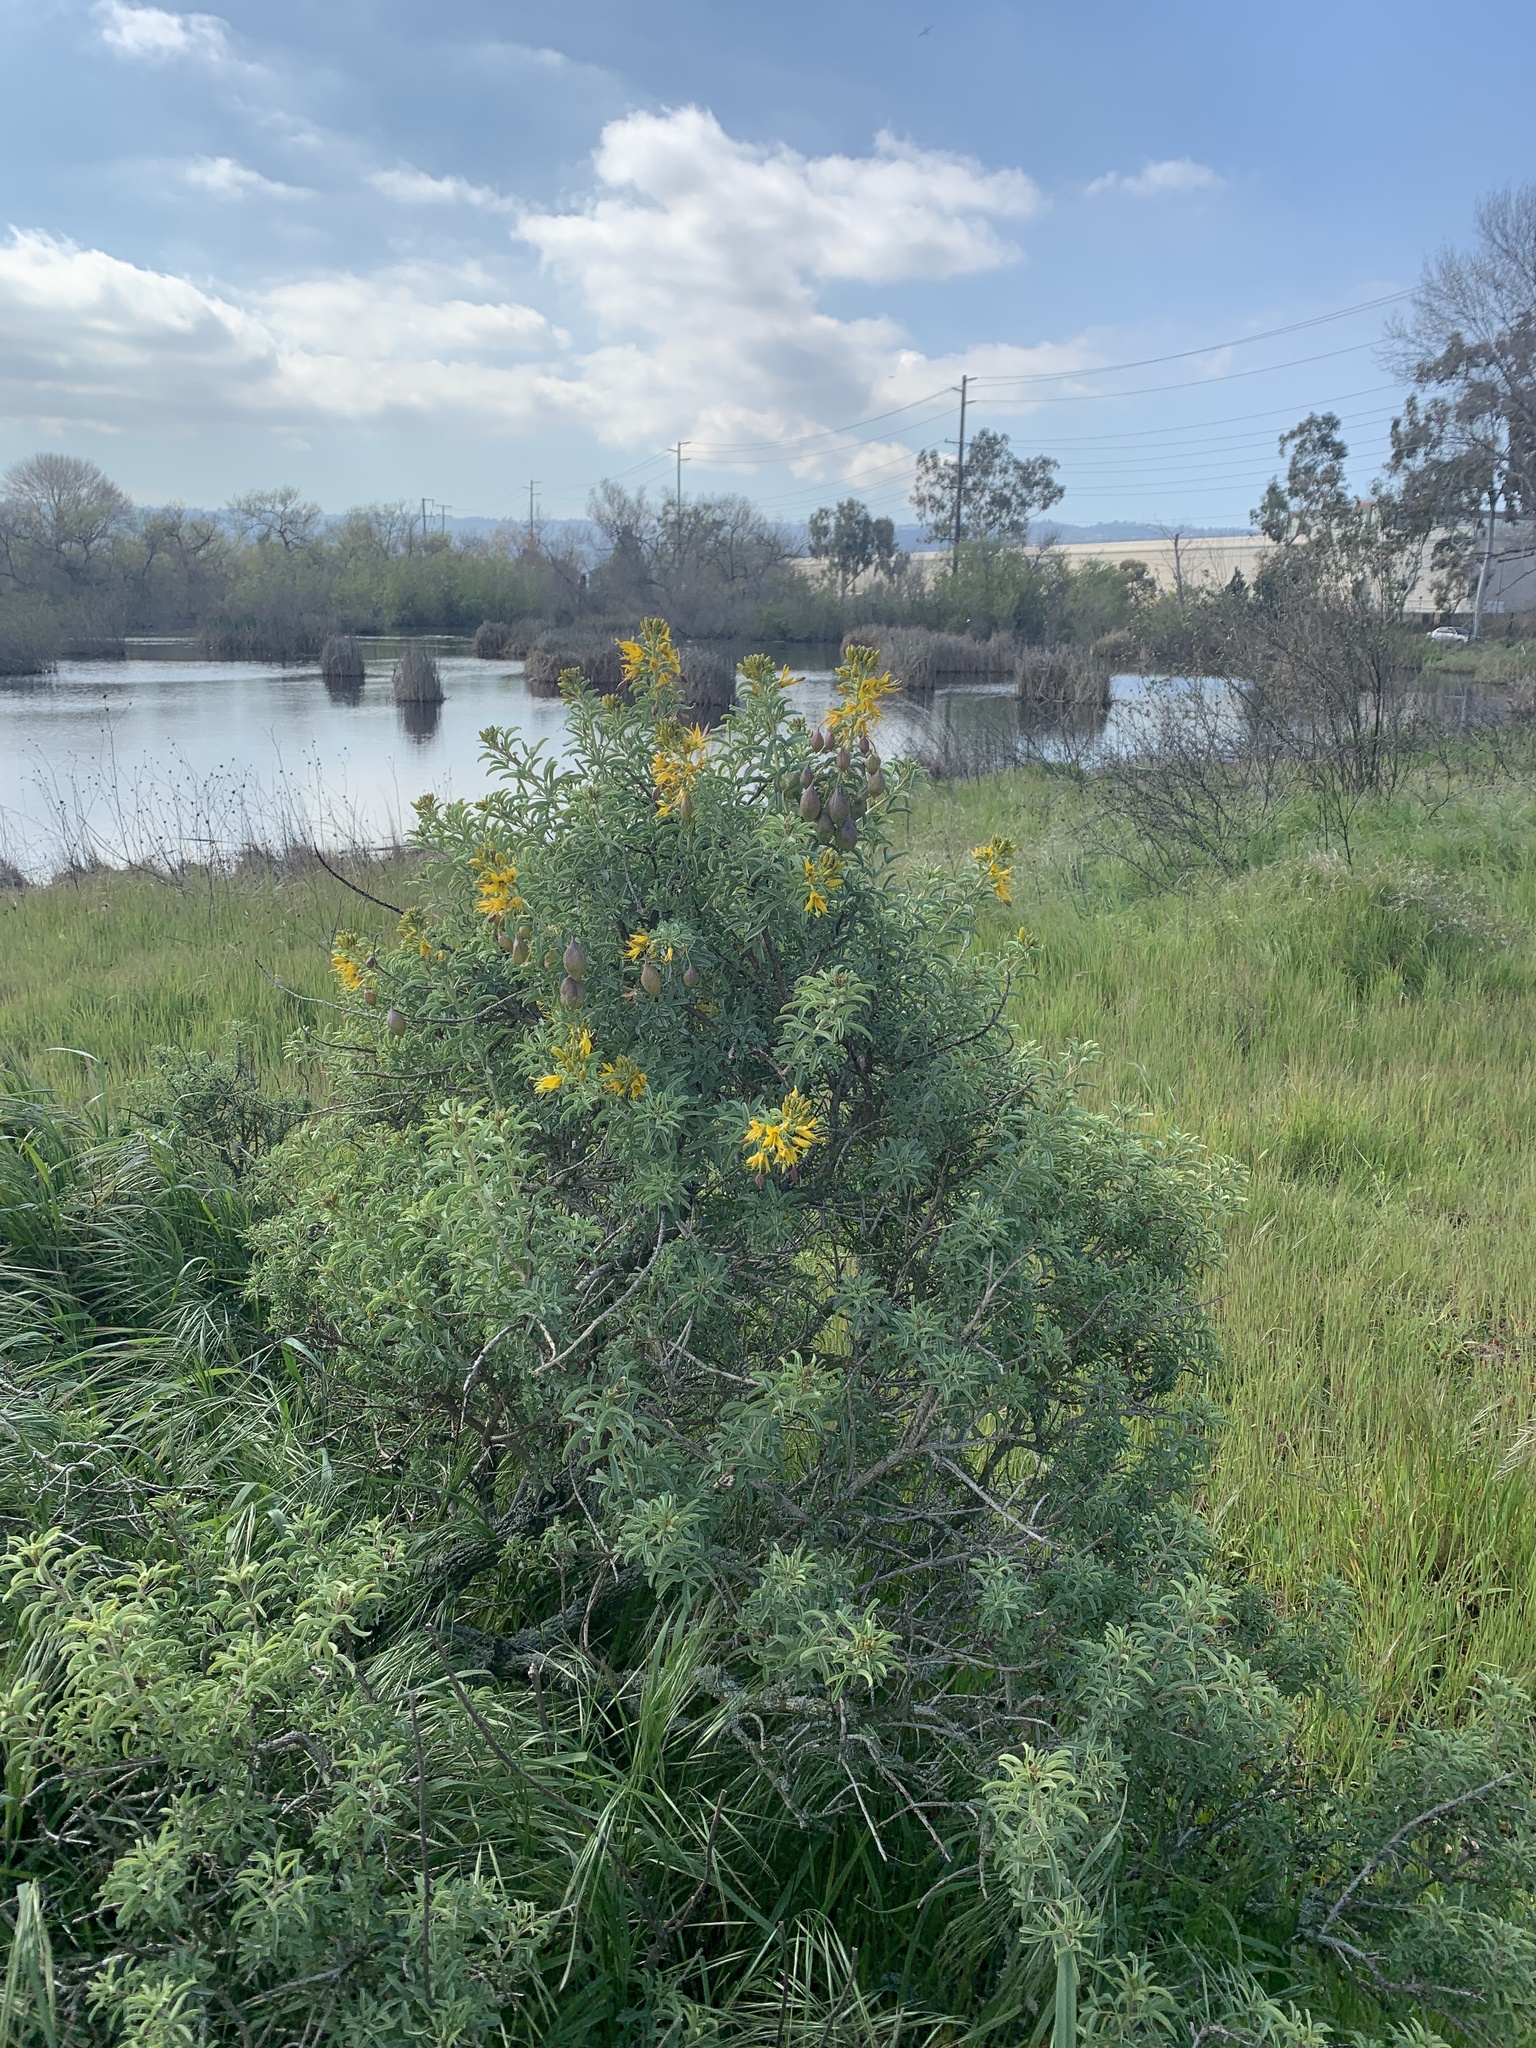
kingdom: Plantae
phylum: Tracheophyta
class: Magnoliopsida
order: Brassicales
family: Cleomaceae
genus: Cleomella
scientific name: Cleomella arborea
